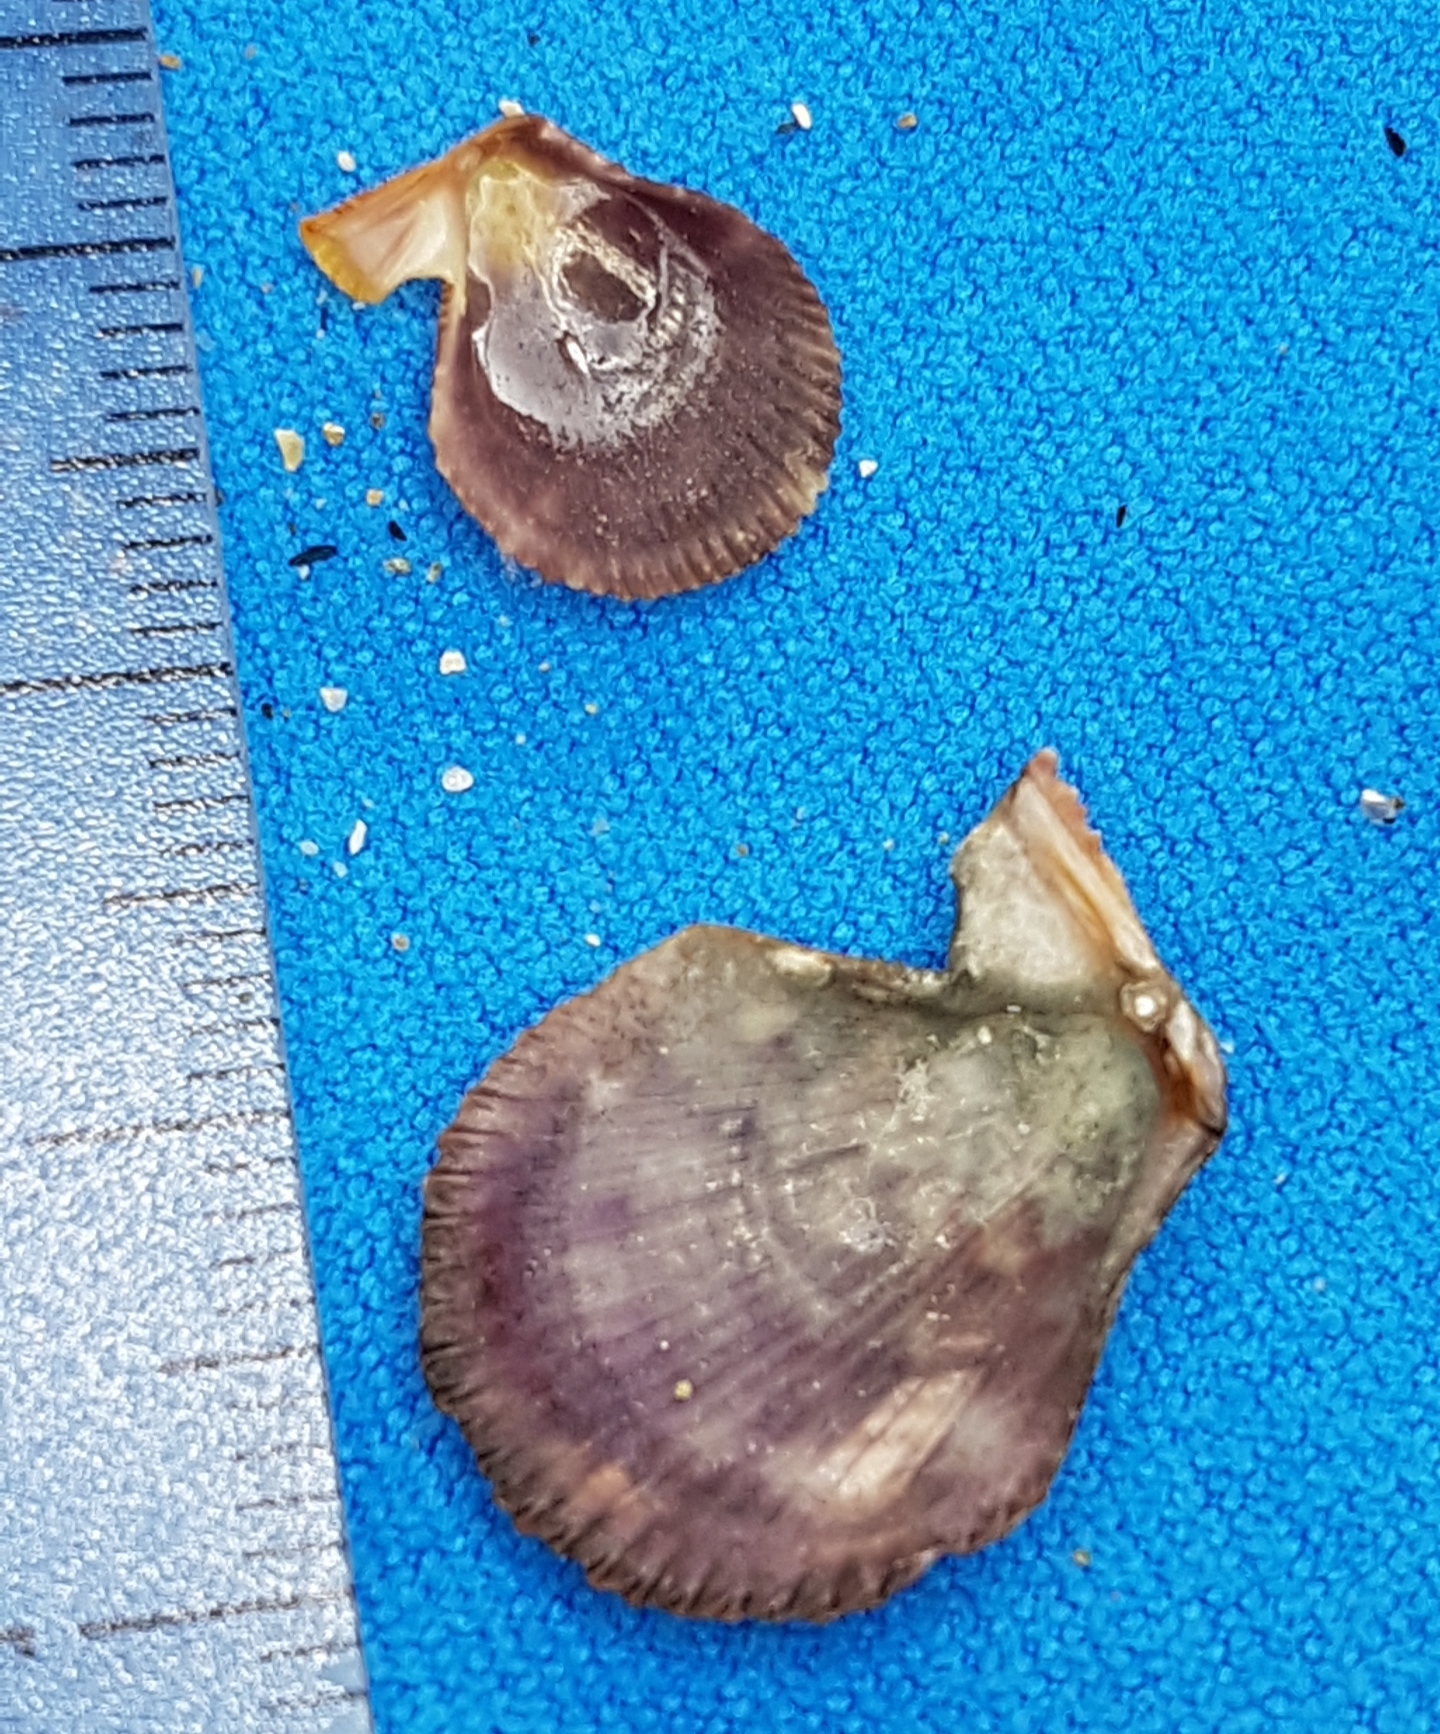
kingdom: Animalia
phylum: Mollusca
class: Bivalvia
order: Pectinida
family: Pectinidae
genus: Mimachlamys
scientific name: Mimachlamys varia
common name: Variegated scallop
